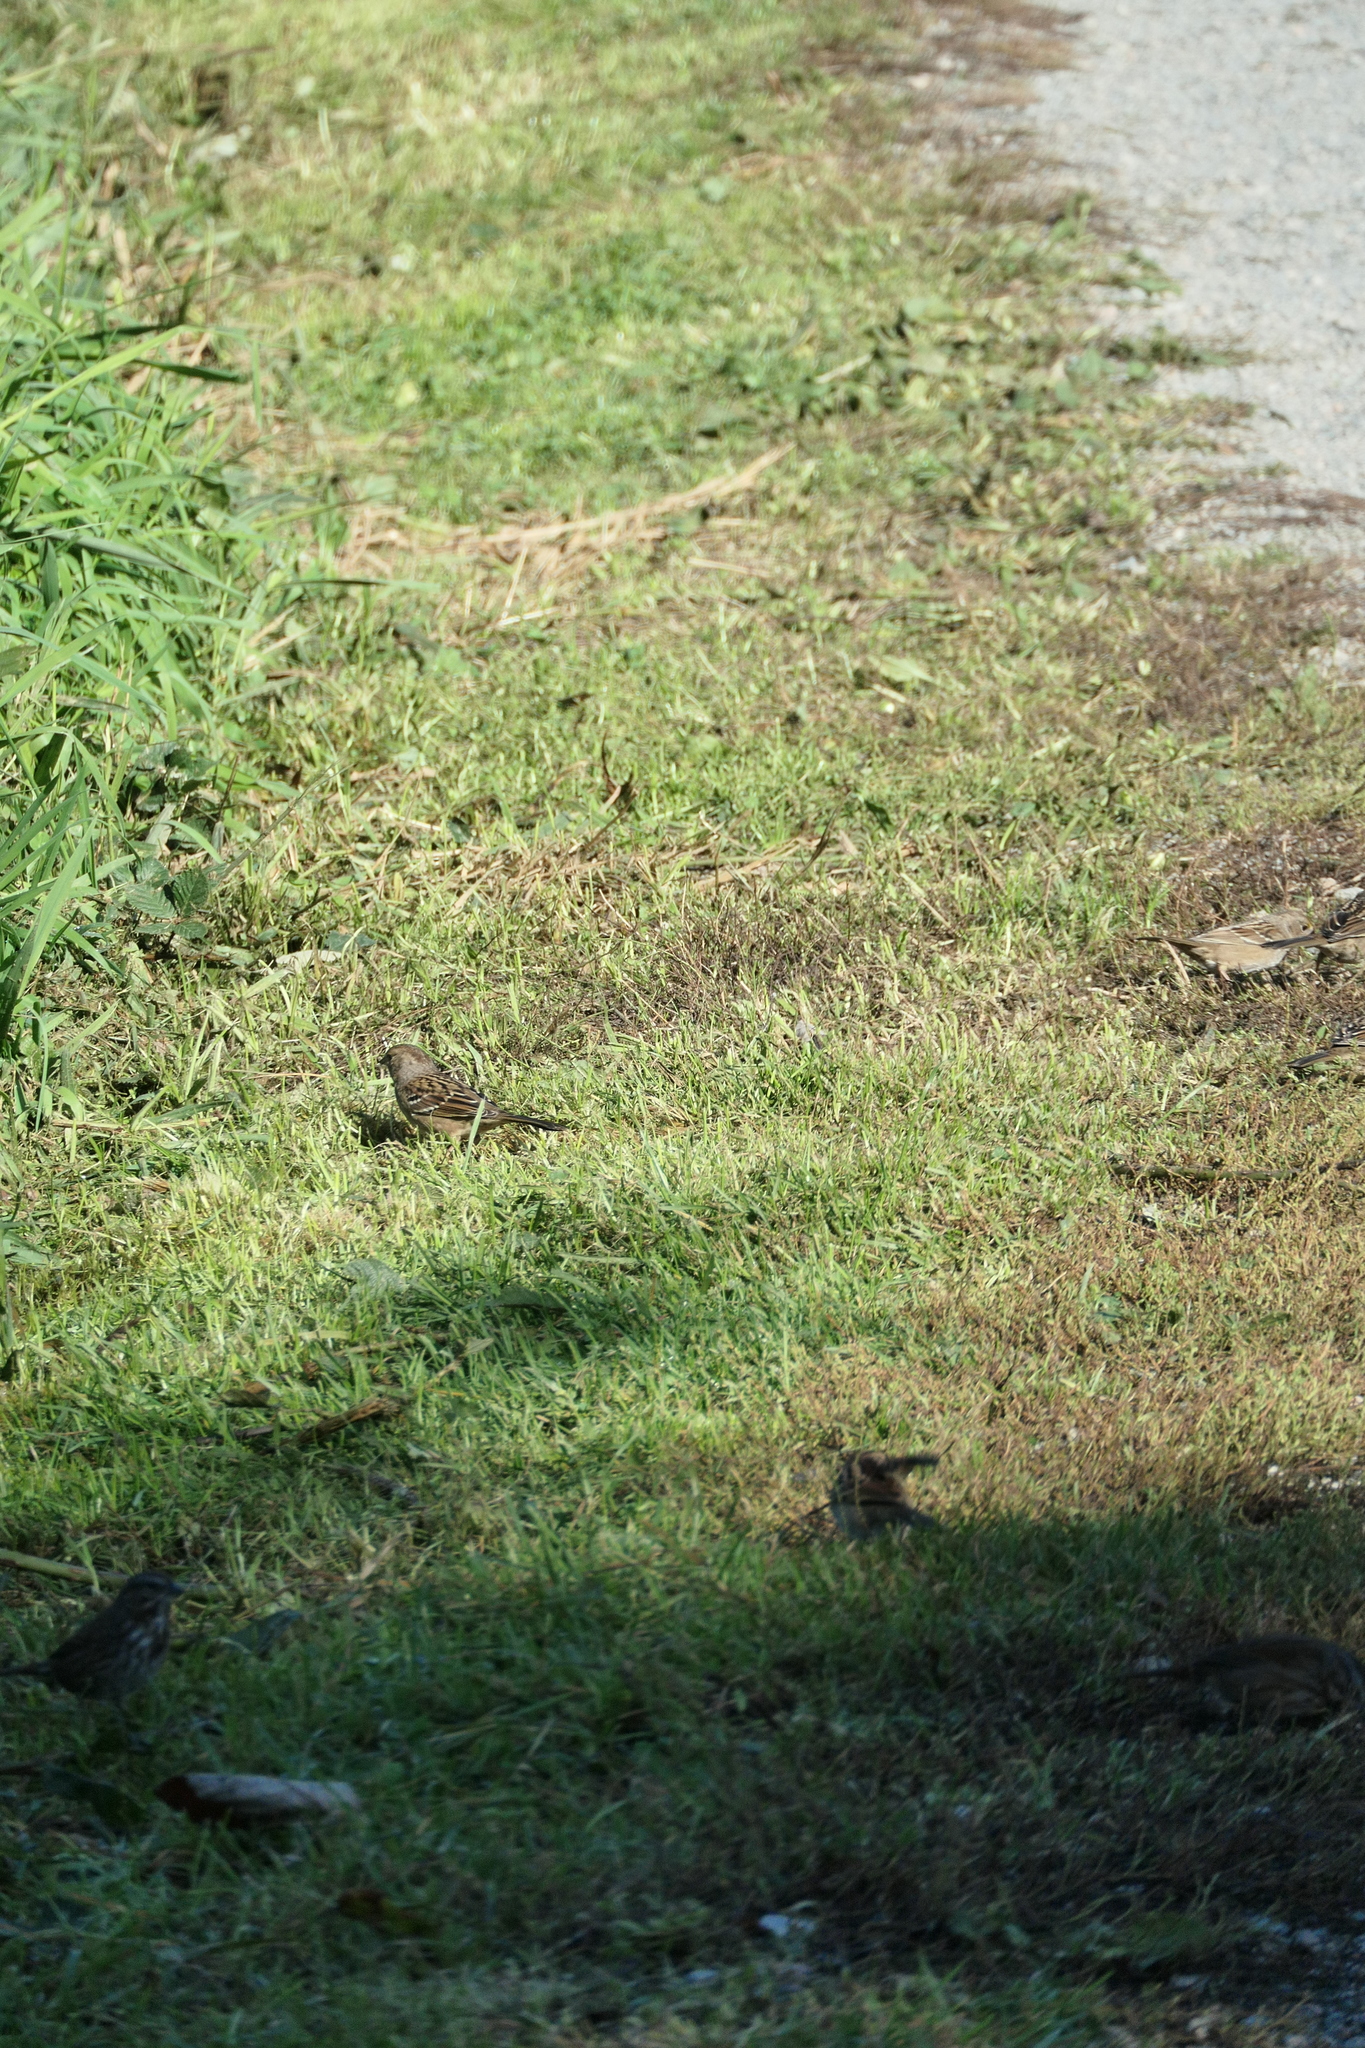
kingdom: Animalia
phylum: Chordata
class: Aves
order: Passeriformes
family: Passerellidae
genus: Zonotrichia
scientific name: Zonotrichia atricapilla
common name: Golden-crowned sparrow
